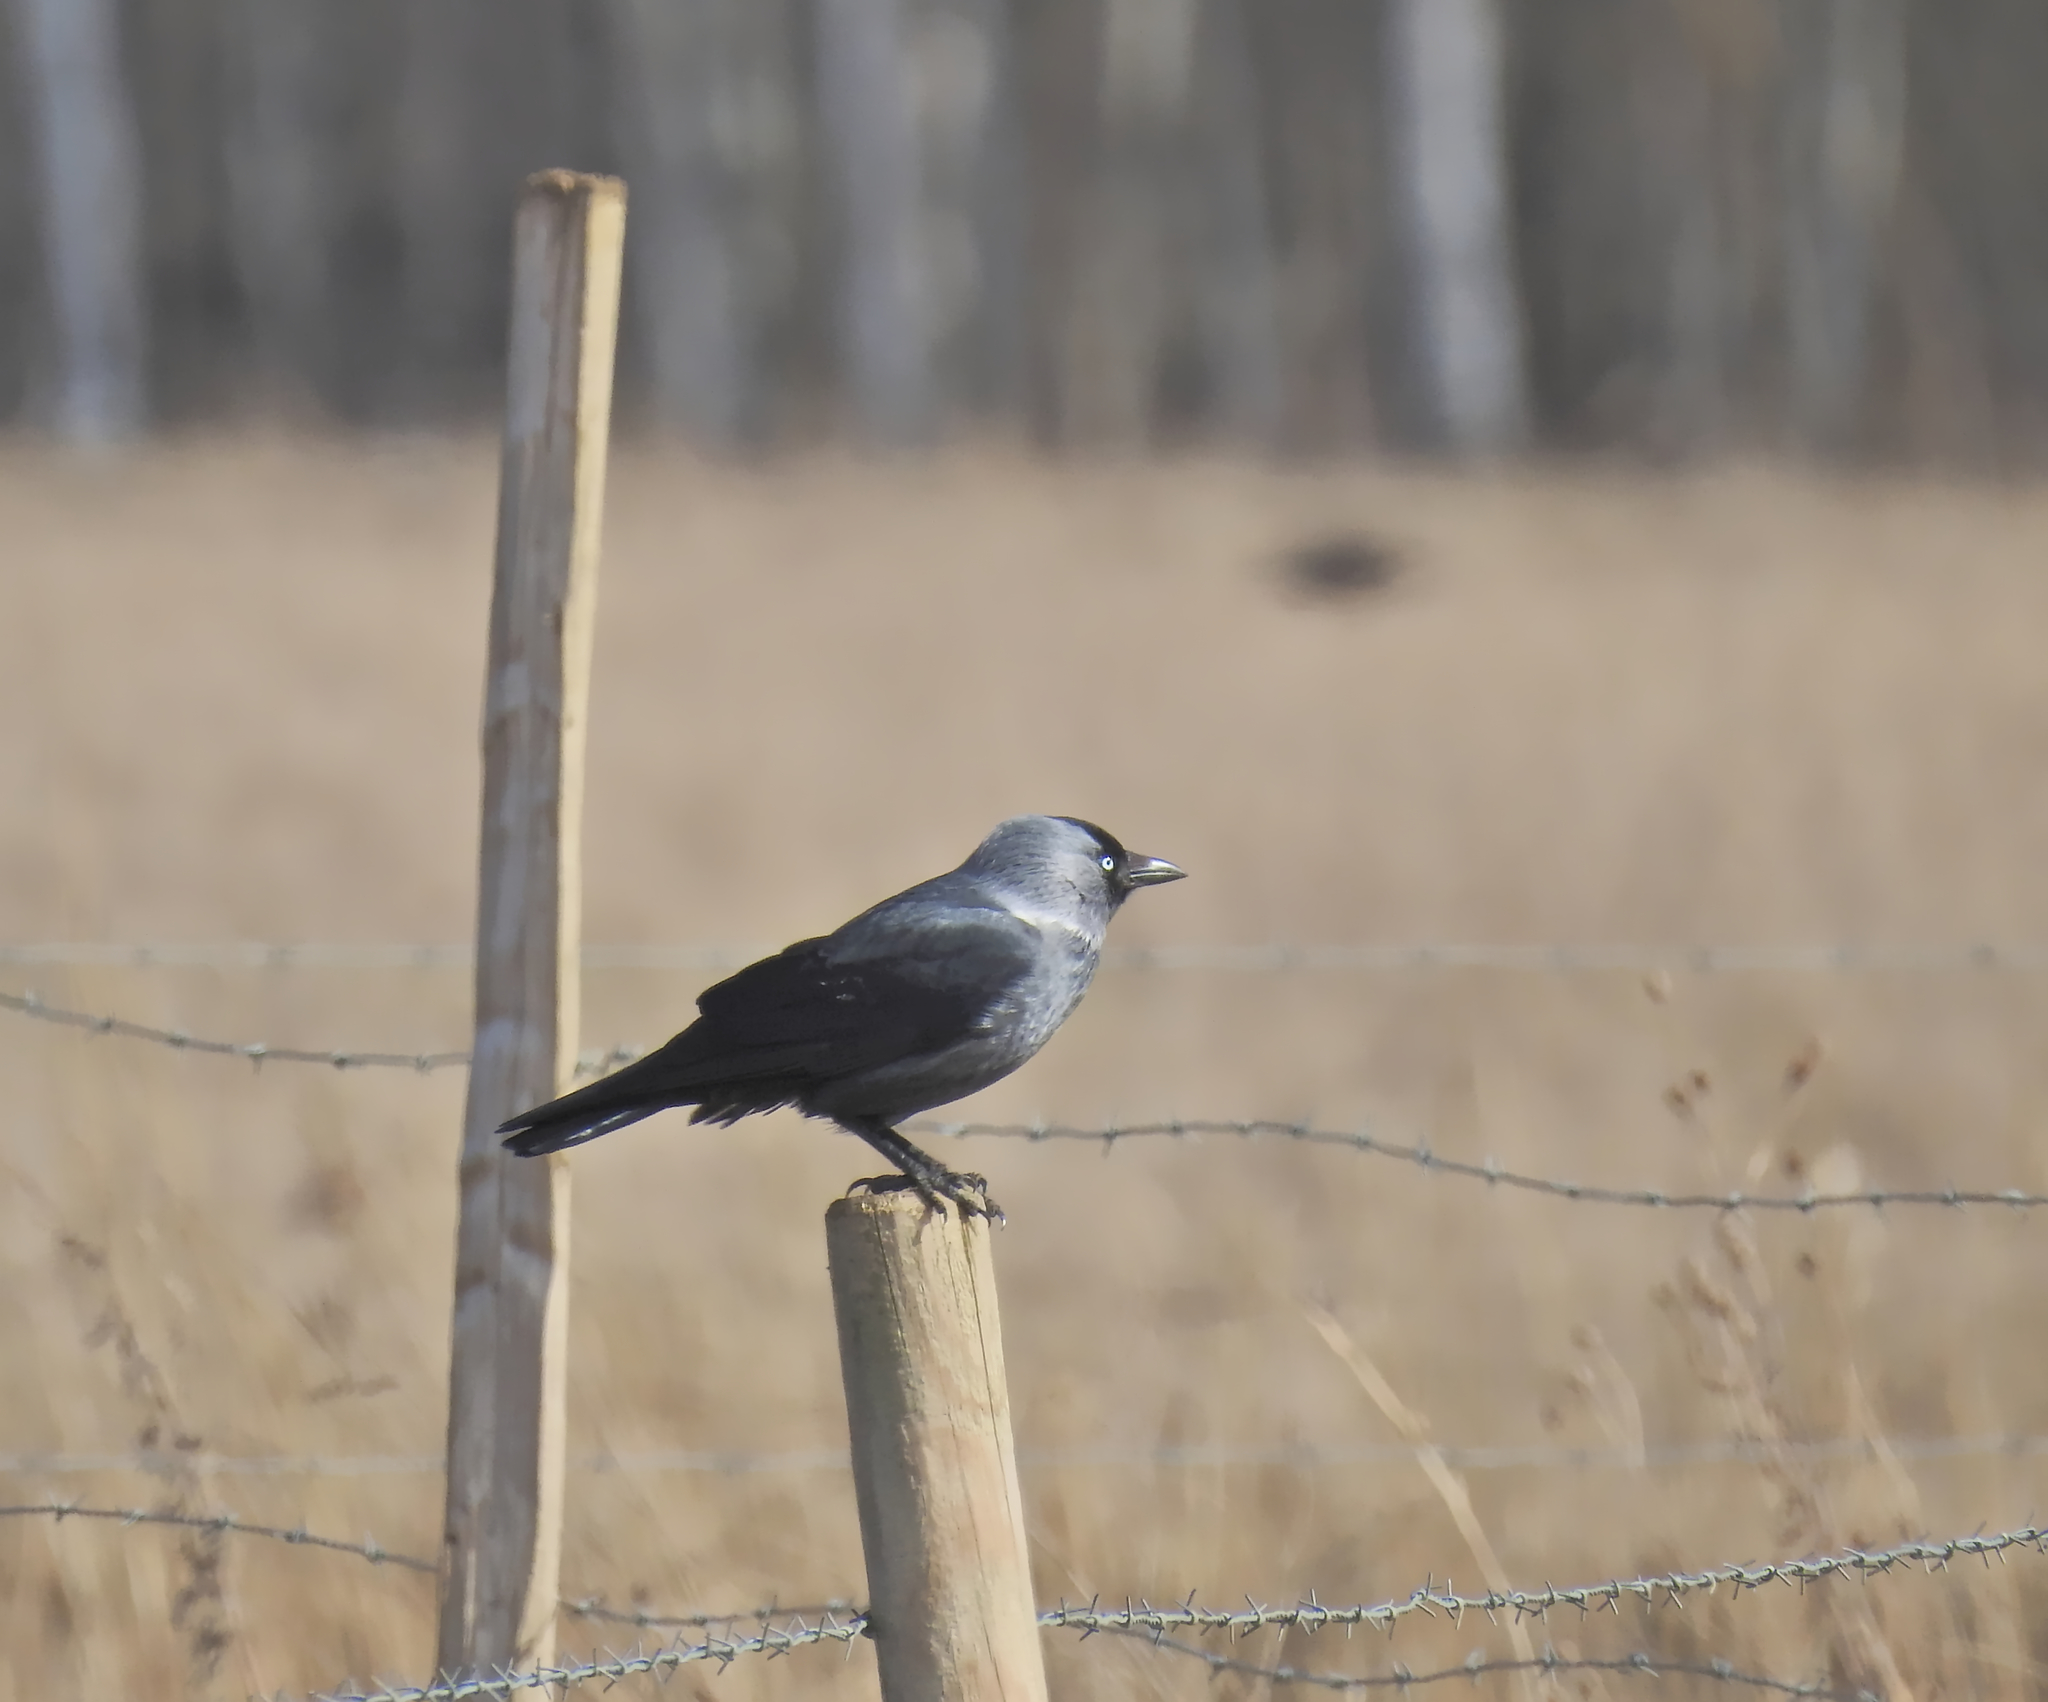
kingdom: Animalia
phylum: Chordata
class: Aves
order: Passeriformes
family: Corvidae
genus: Coloeus
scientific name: Coloeus monedula
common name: Western jackdaw
